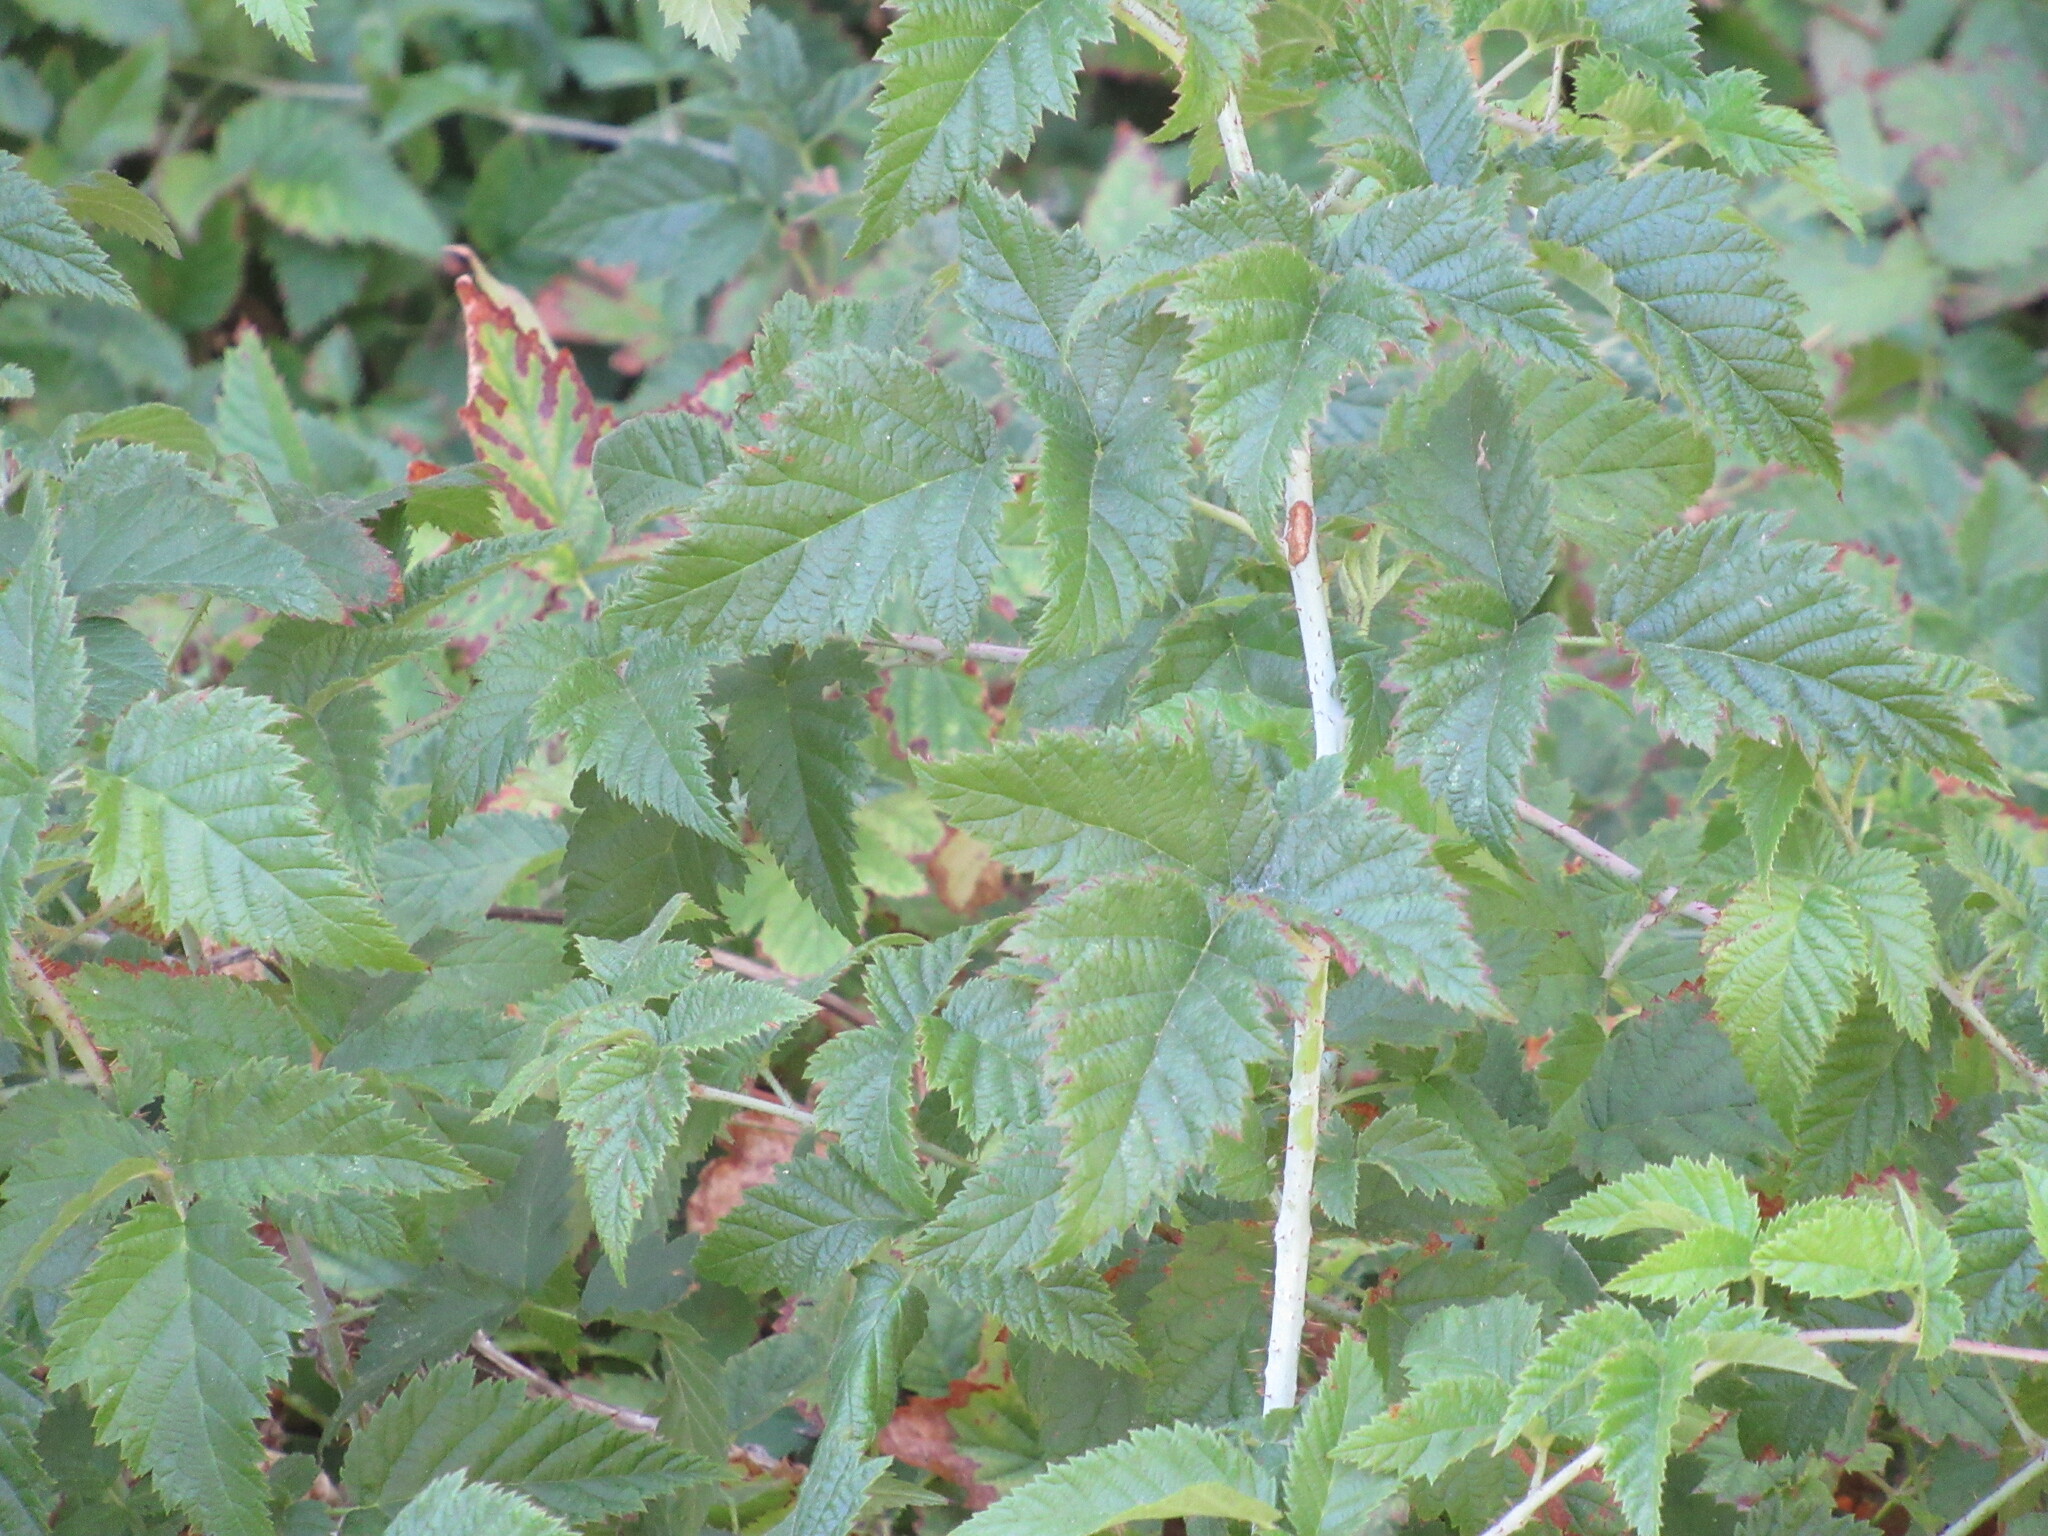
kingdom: Plantae
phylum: Tracheophyta
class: Magnoliopsida
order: Rosales
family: Rosaceae
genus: Rubus
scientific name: Rubus ursinus
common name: Pacific blackberry
